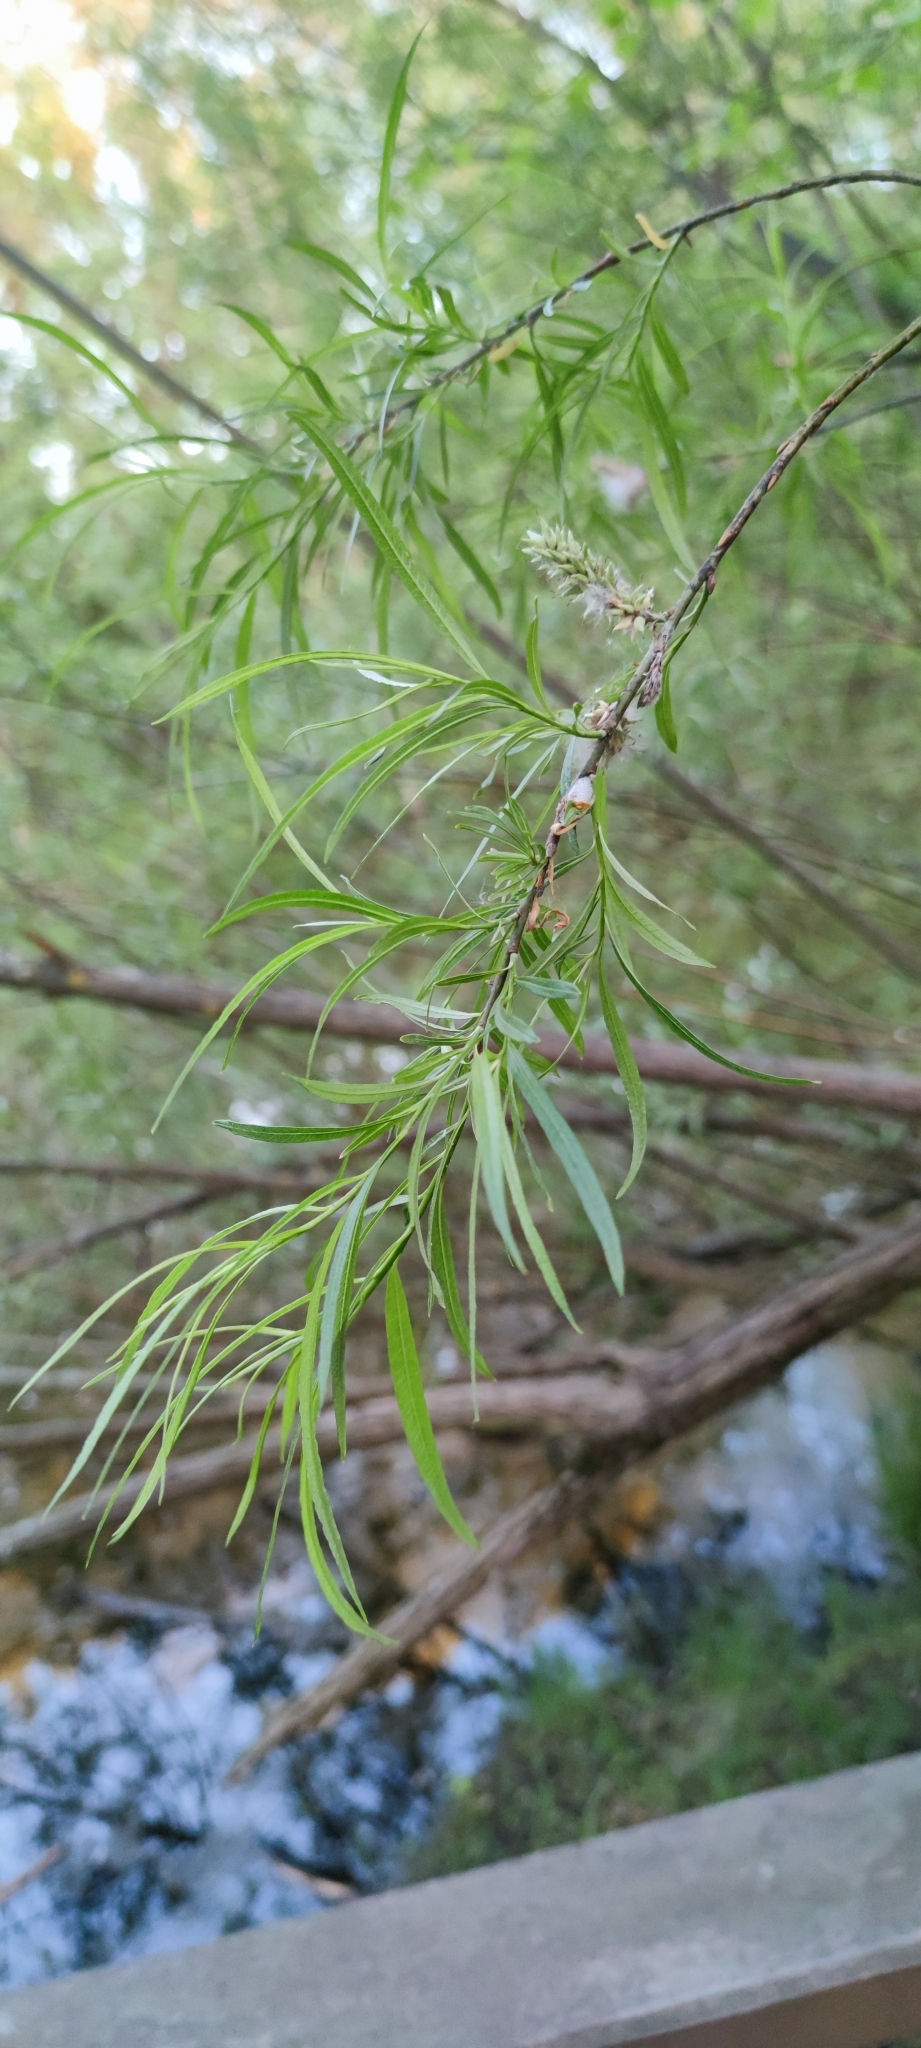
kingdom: Plantae
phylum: Tracheophyta
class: Magnoliopsida
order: Malpighiales
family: Salicaceae
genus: Salix
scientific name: Salix viminalis
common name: Osier
